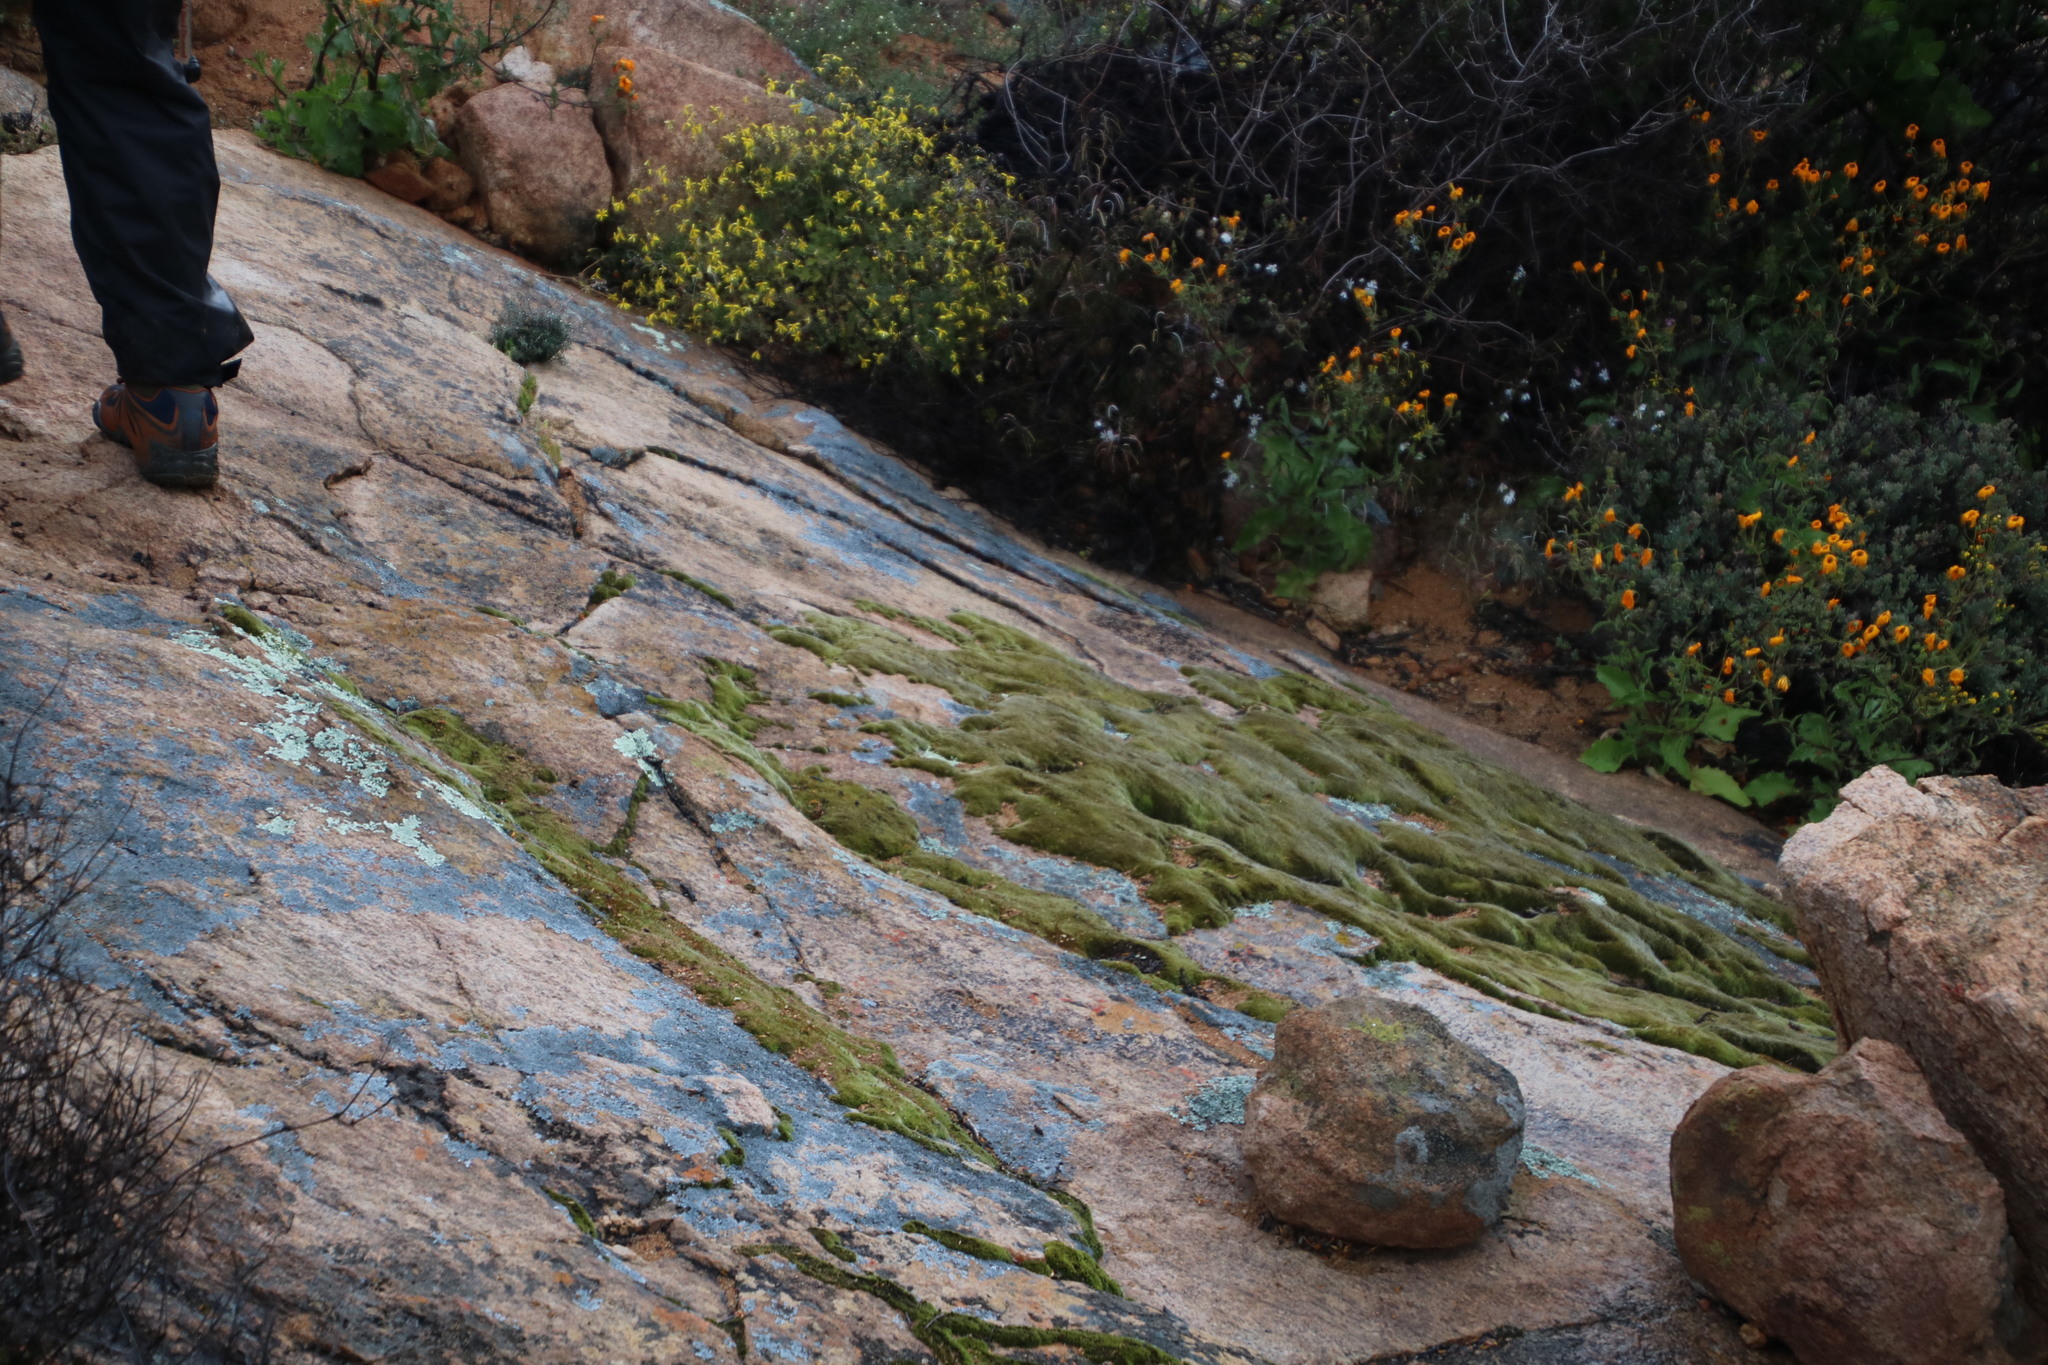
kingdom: Plantae
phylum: Bryophyta
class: Bryopsida
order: Grimmiales
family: Grimmiaceae
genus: Grimmia
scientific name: Grimmia laevigata
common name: Hoary grimmia
